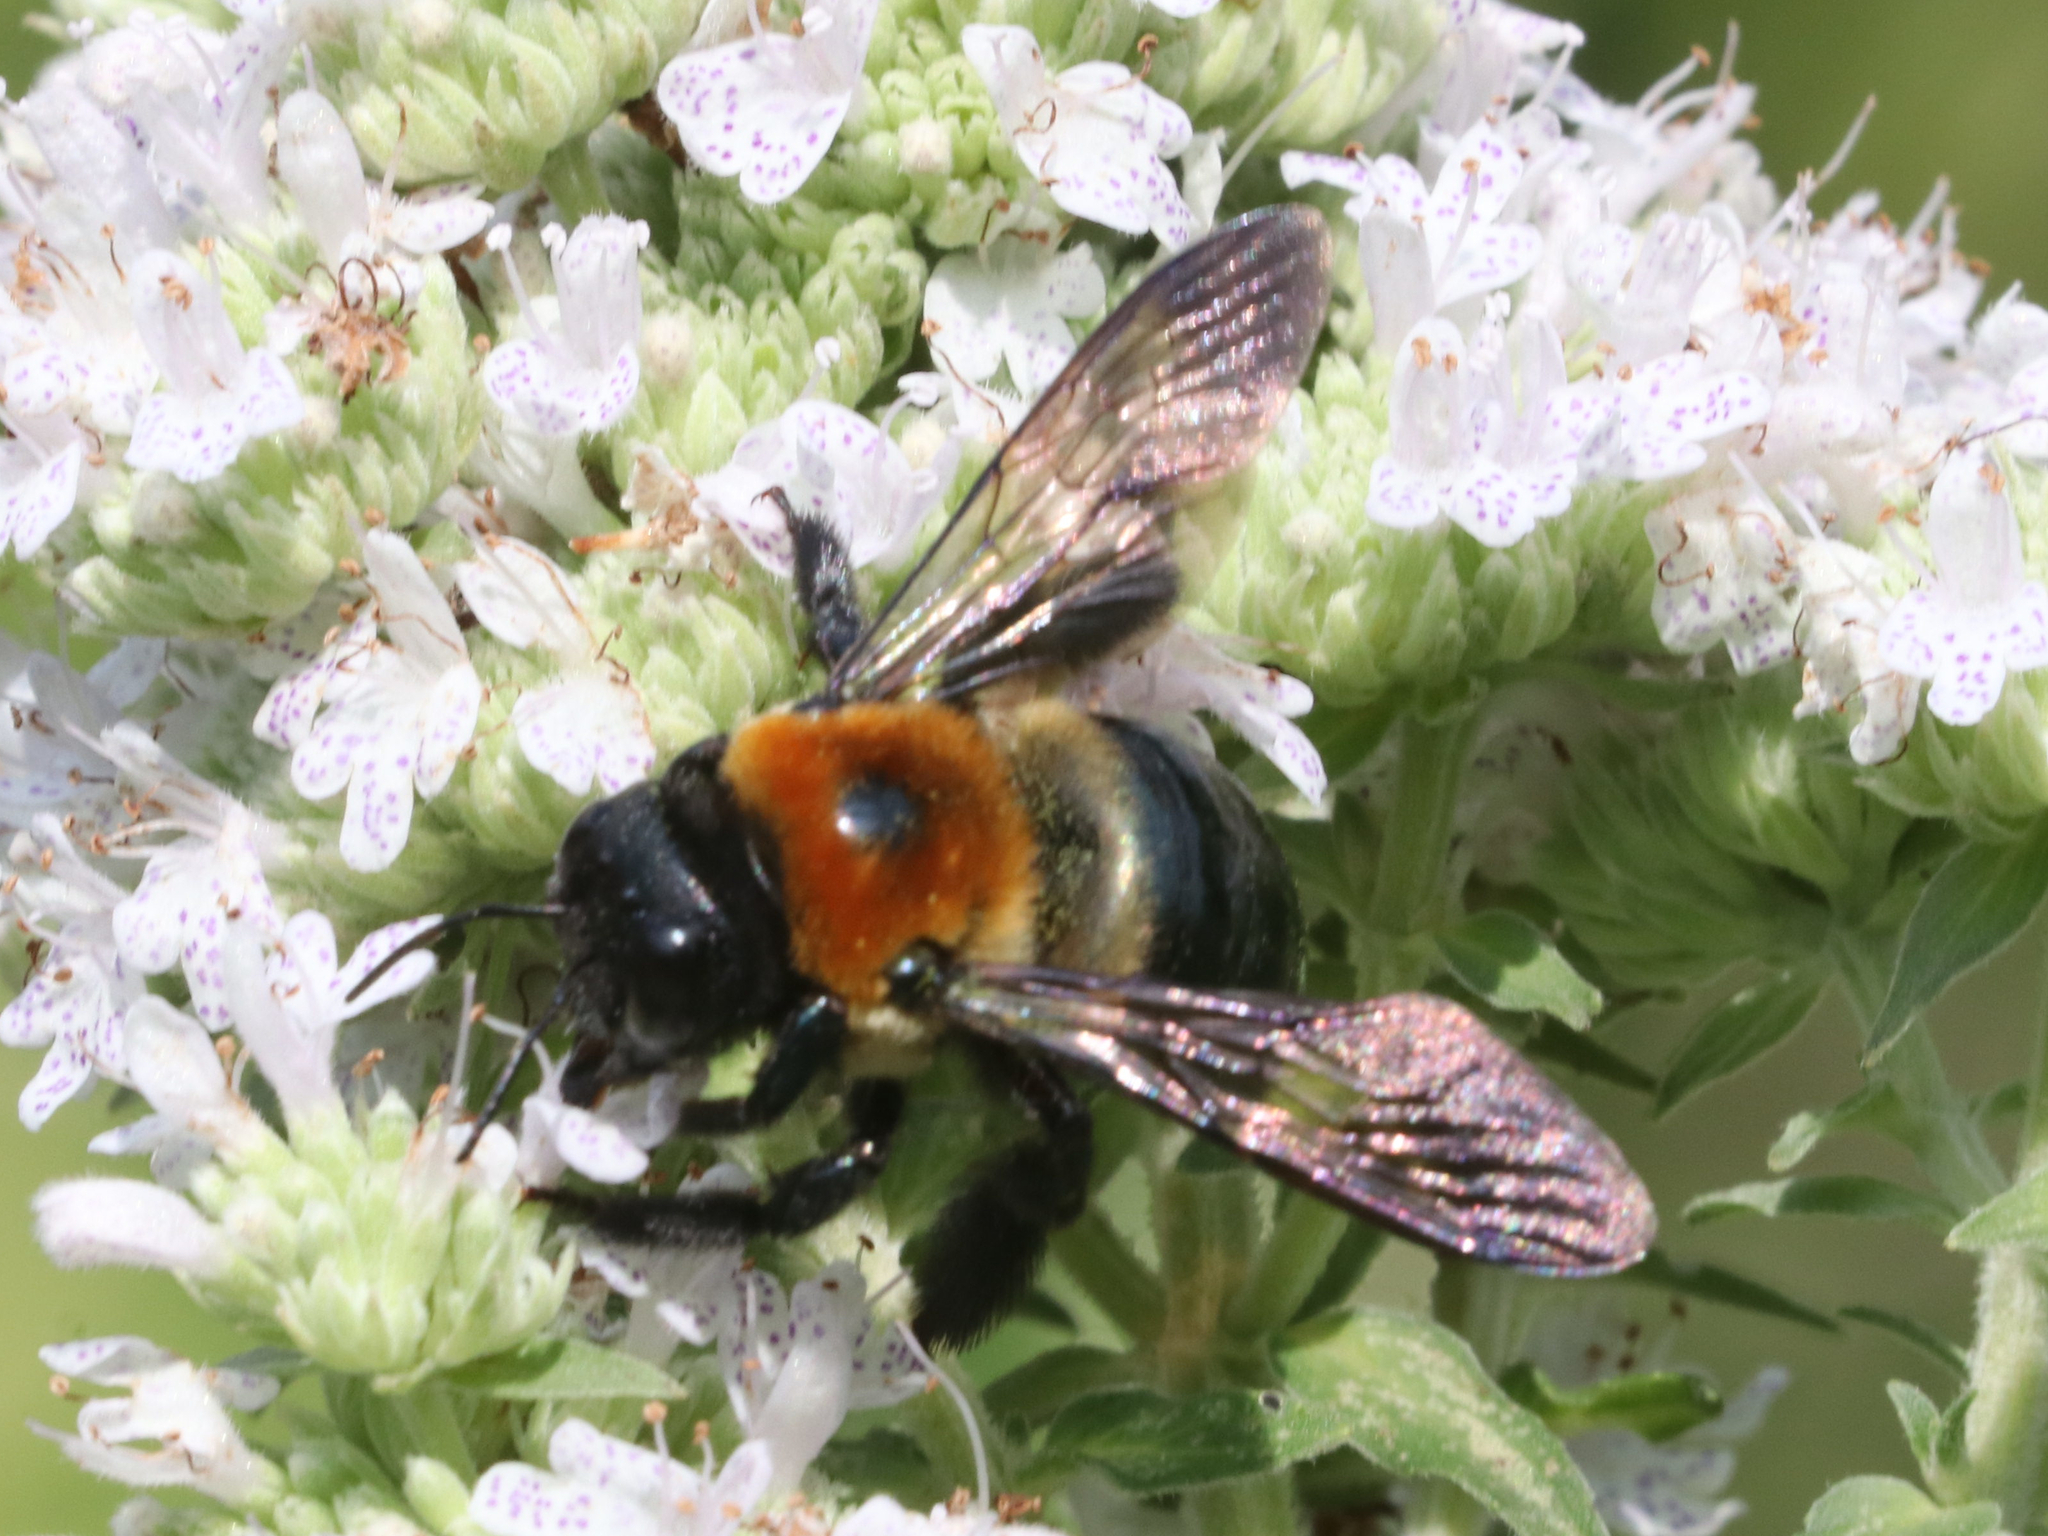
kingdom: Animalia
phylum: Arthropoda
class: Insecta
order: Hymenoptera
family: Apidae
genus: Xylocopa
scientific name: Xylocopa virginica
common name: Carpenter bee
